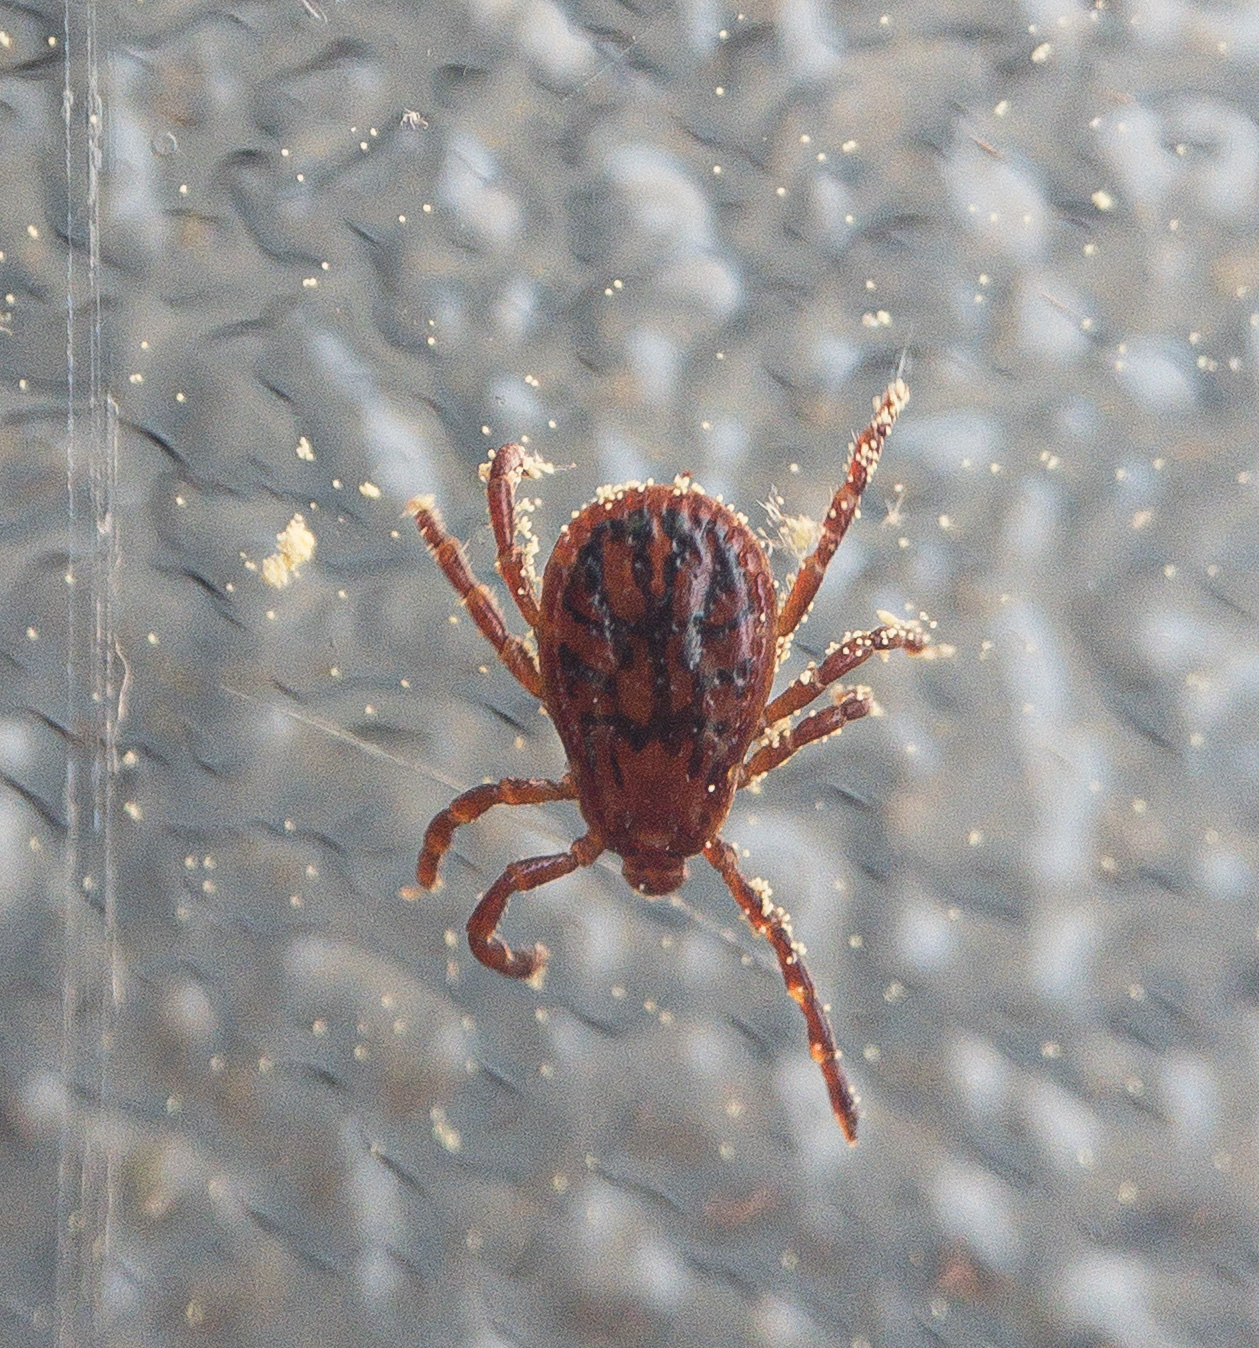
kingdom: Animalia
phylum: Arthropoda
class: Arachnida
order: Ixodida
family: Ixodidae
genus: Dermacentor
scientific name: Dermacentor variabilis
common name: American dog tick
